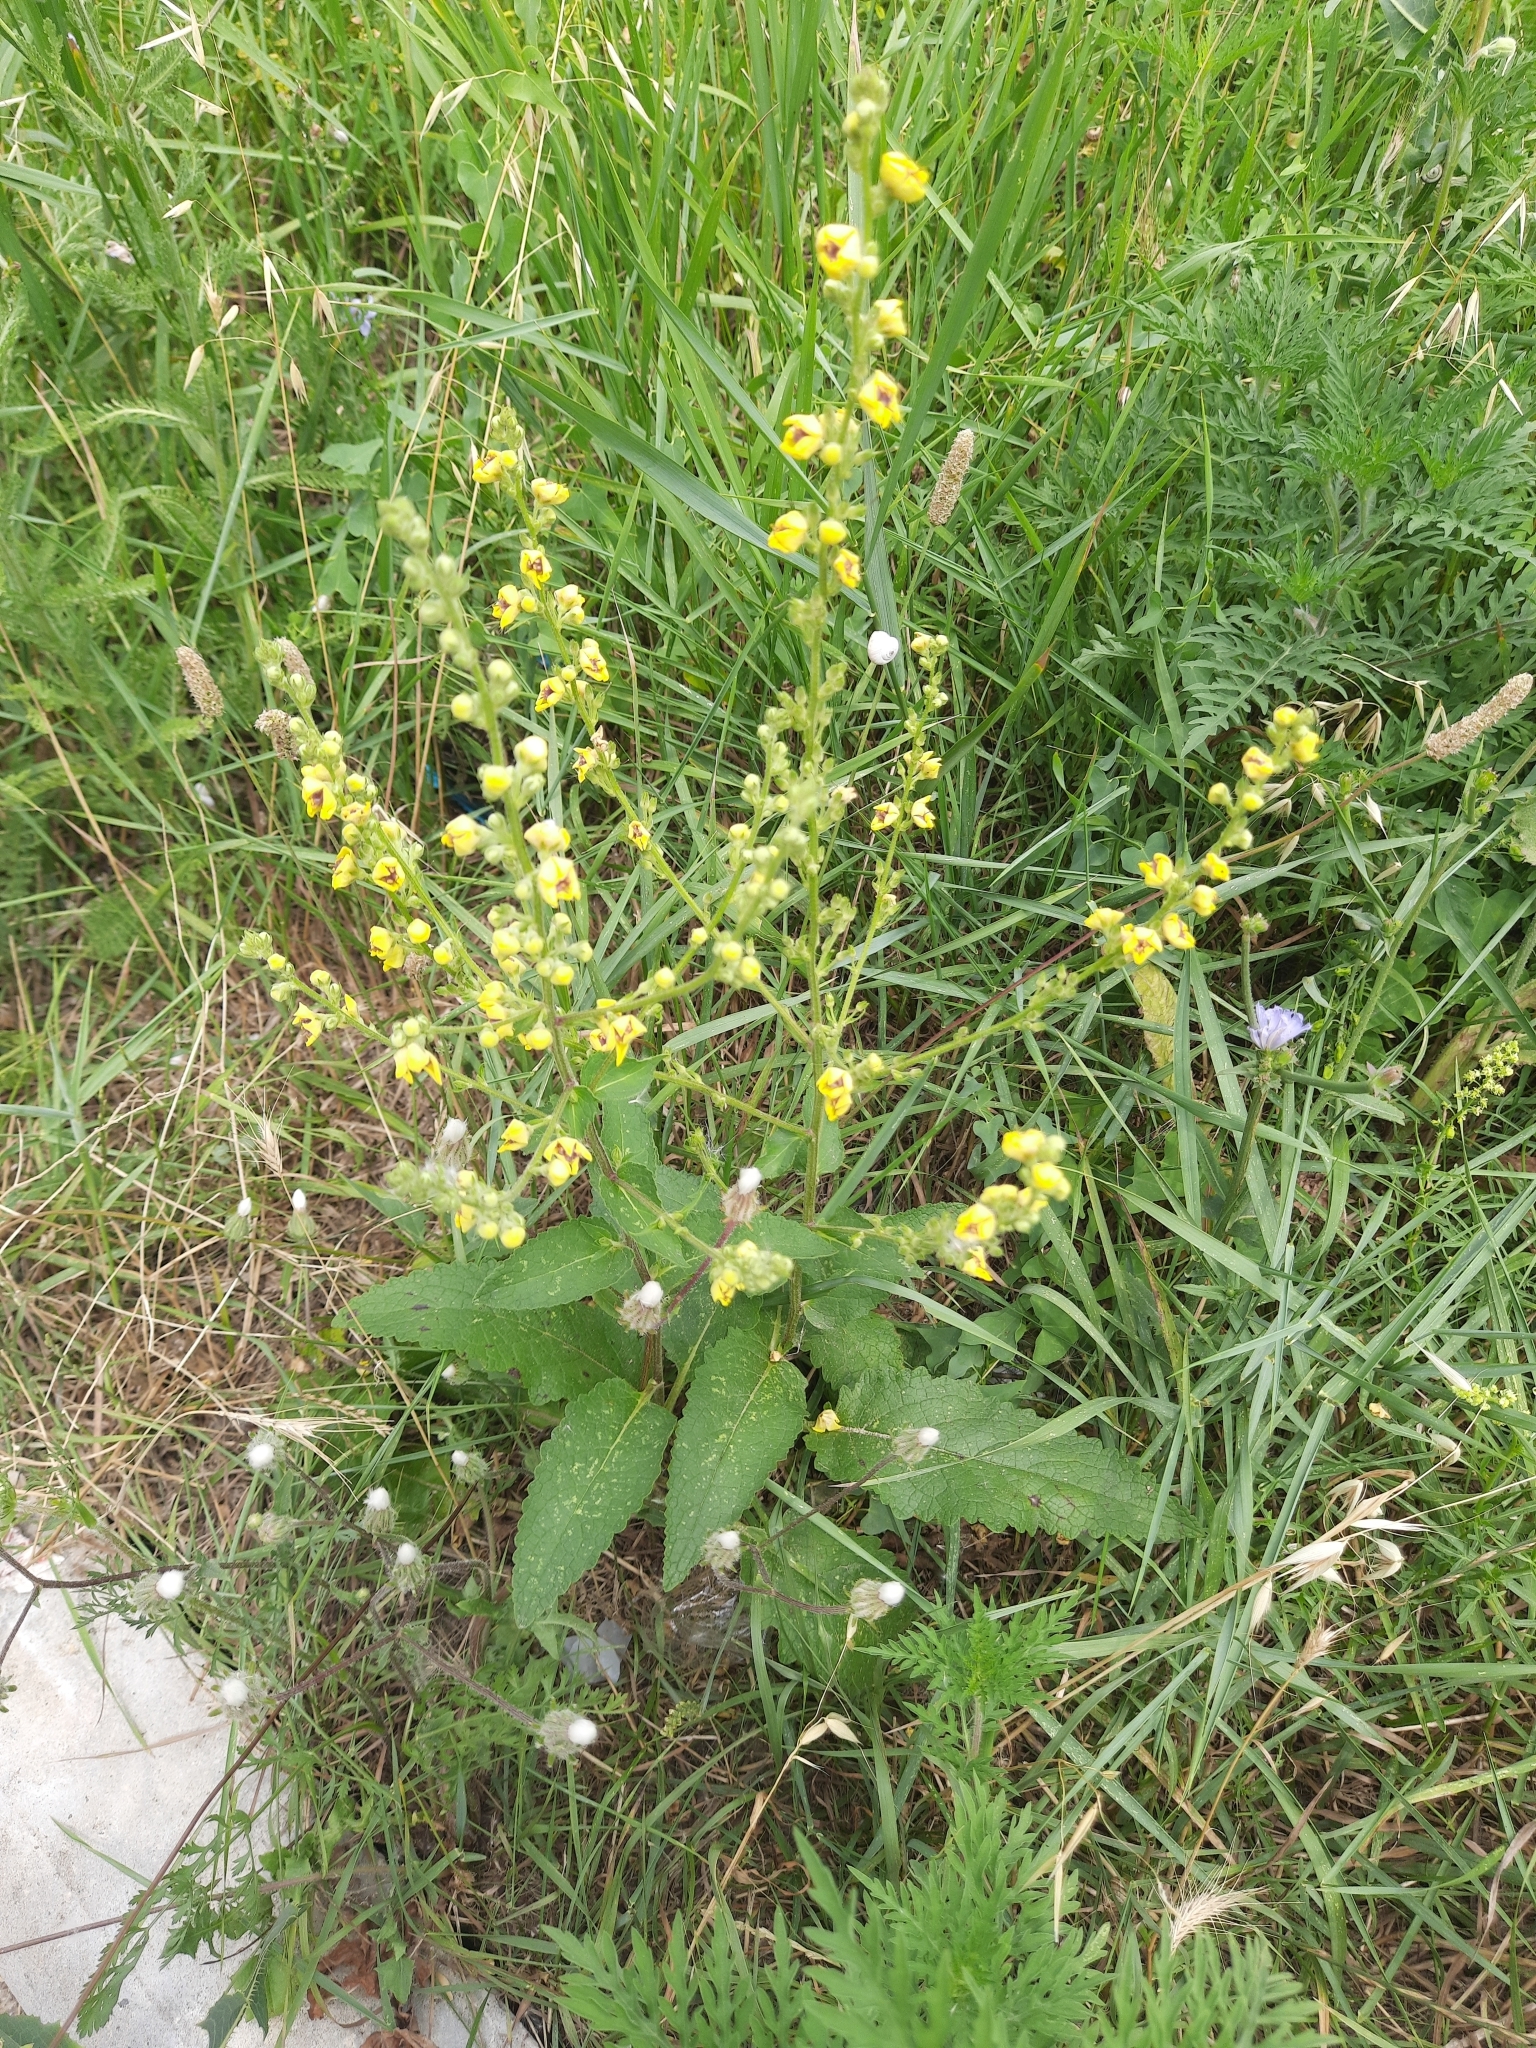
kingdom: Plantae
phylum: Tracheophyta
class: Magnoliopsida
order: Lamiales
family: Scrophulariaceae
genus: Verbascum
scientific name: Verbascum chaixii
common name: Nettle-leaved mullein
